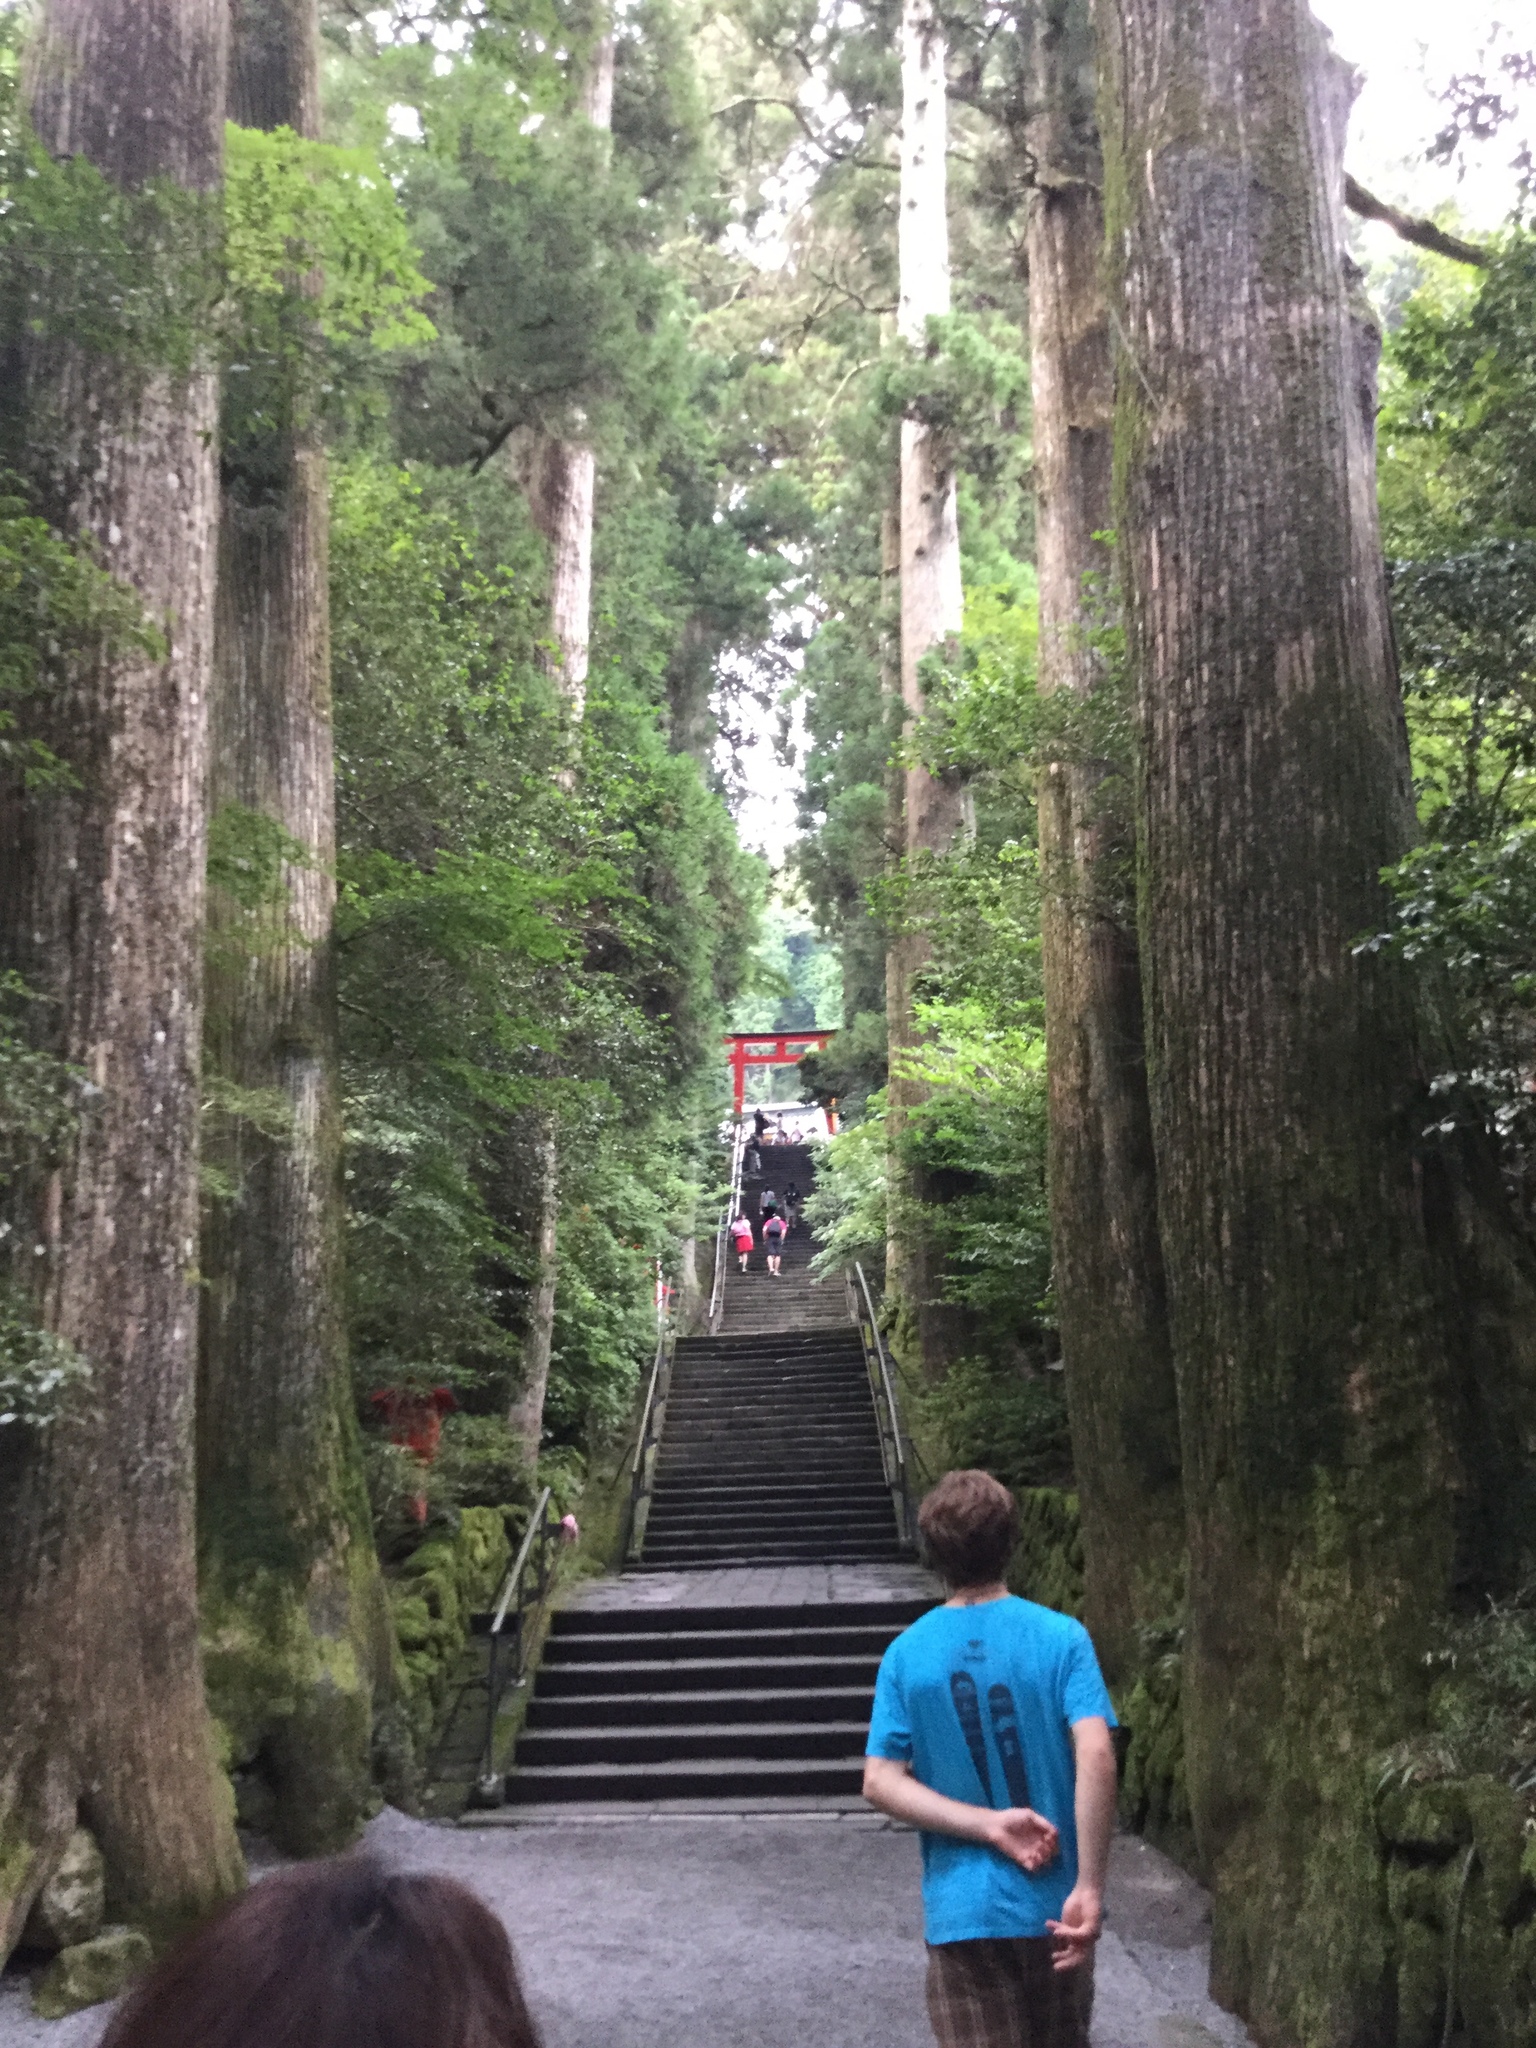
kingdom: Plantae
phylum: Tracheophyta
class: Pinopsida
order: Pinales
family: Cupressaceae
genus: Cryptomeria
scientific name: Cryptomeria japonica
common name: Japanese cedar
